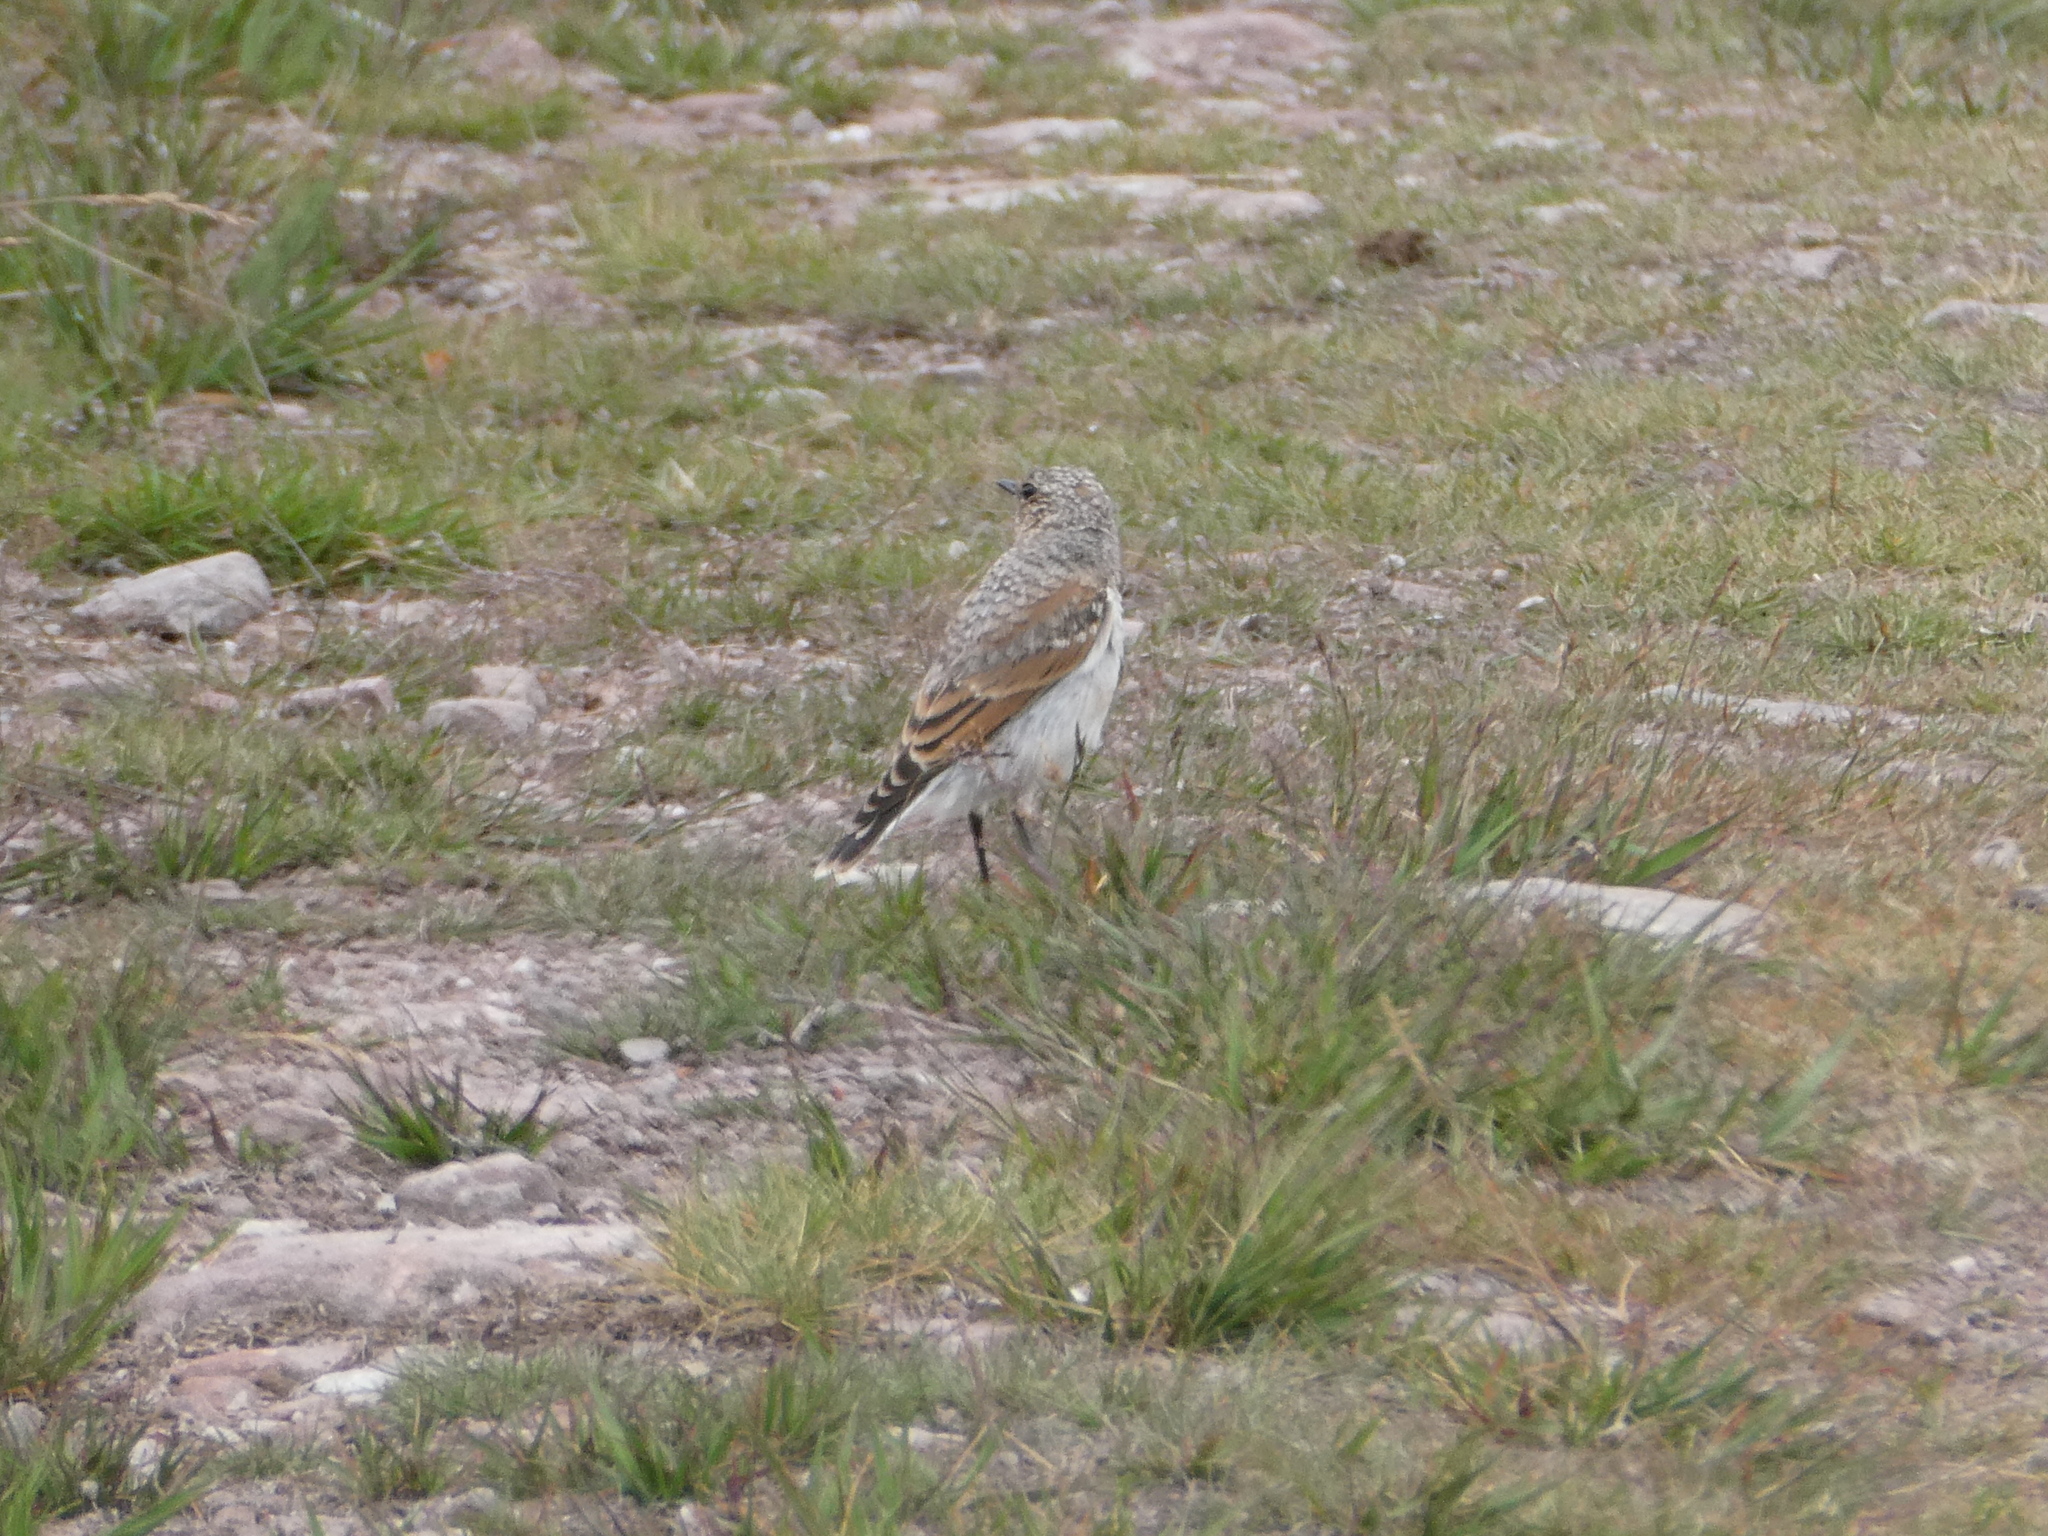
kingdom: Animalia
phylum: Chordata
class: Aves
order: Passeriformes
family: Muscicapidae
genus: Oenanthe
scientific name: Oenanthe oenanthe
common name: Northern wheatear
